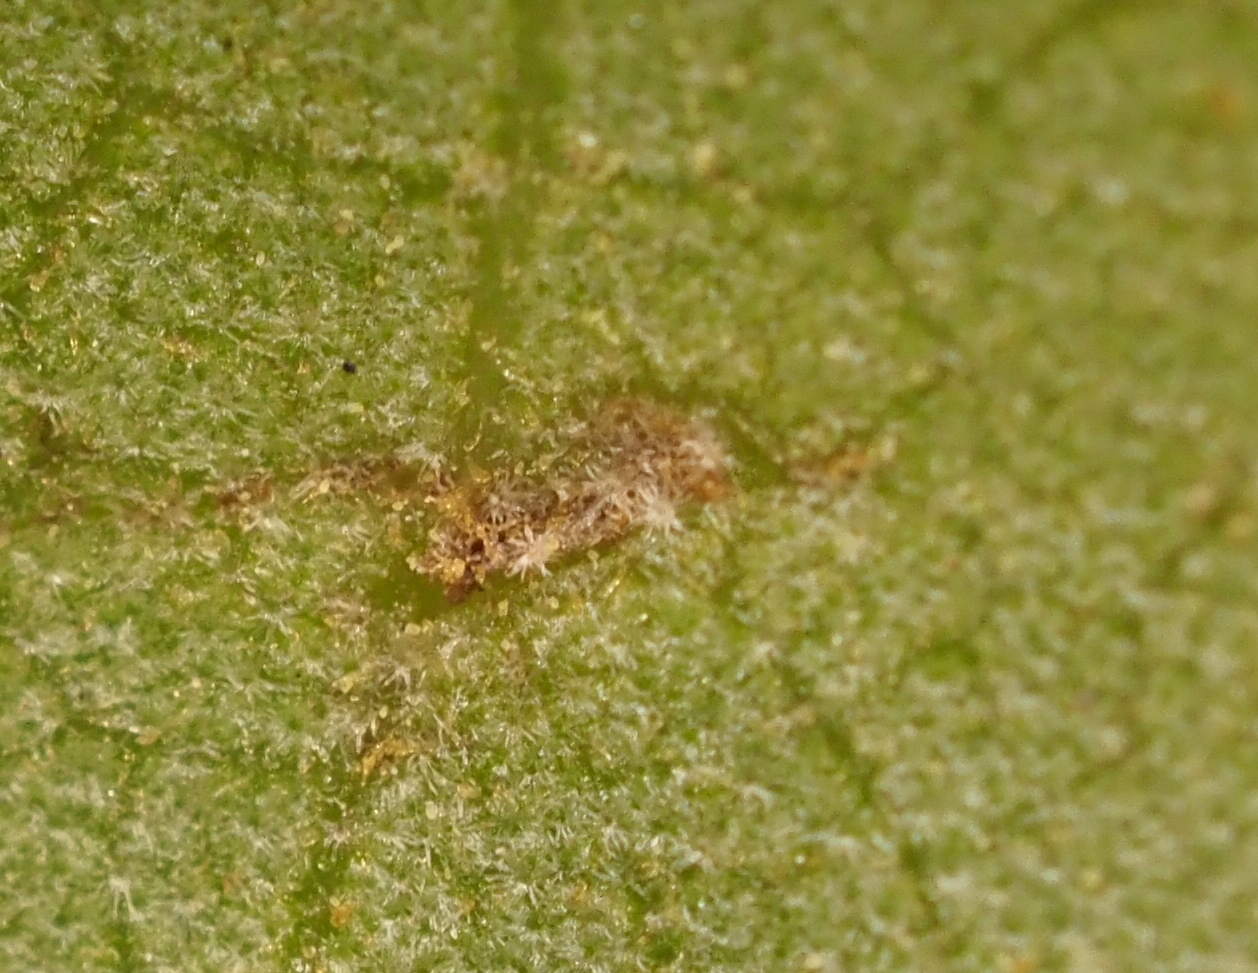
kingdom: Animalia
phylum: Arthropoda
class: Insecta
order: Hymenoptera
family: Cynipidae
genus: Belonocnema
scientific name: Belonocnema kinseyi
